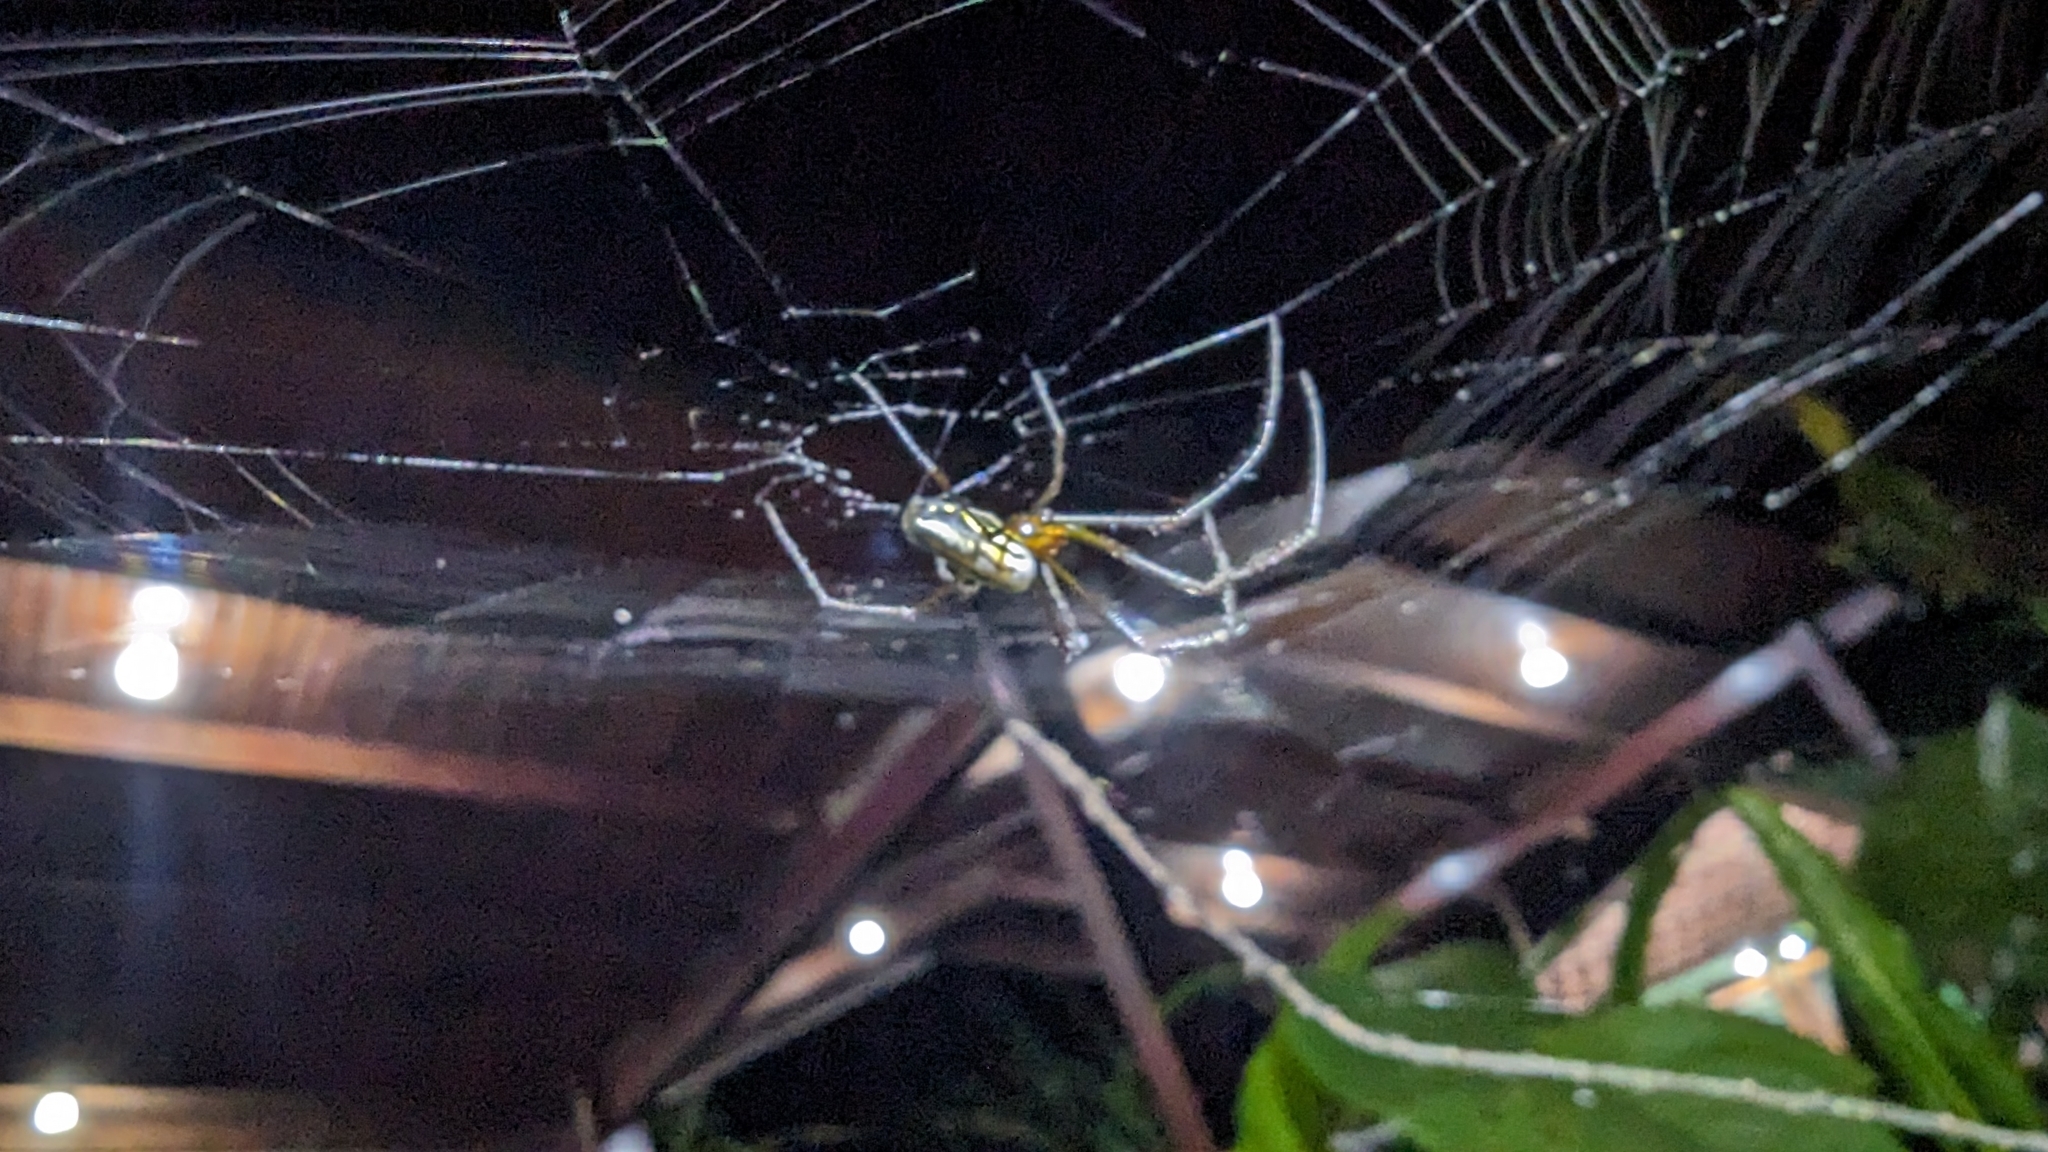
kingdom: Animalia
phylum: Arthropoda
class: Arachnida
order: Araneae
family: Tetragnathidae
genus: Leucauge
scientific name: Leucauge argyra
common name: Longjawed orb weavers
